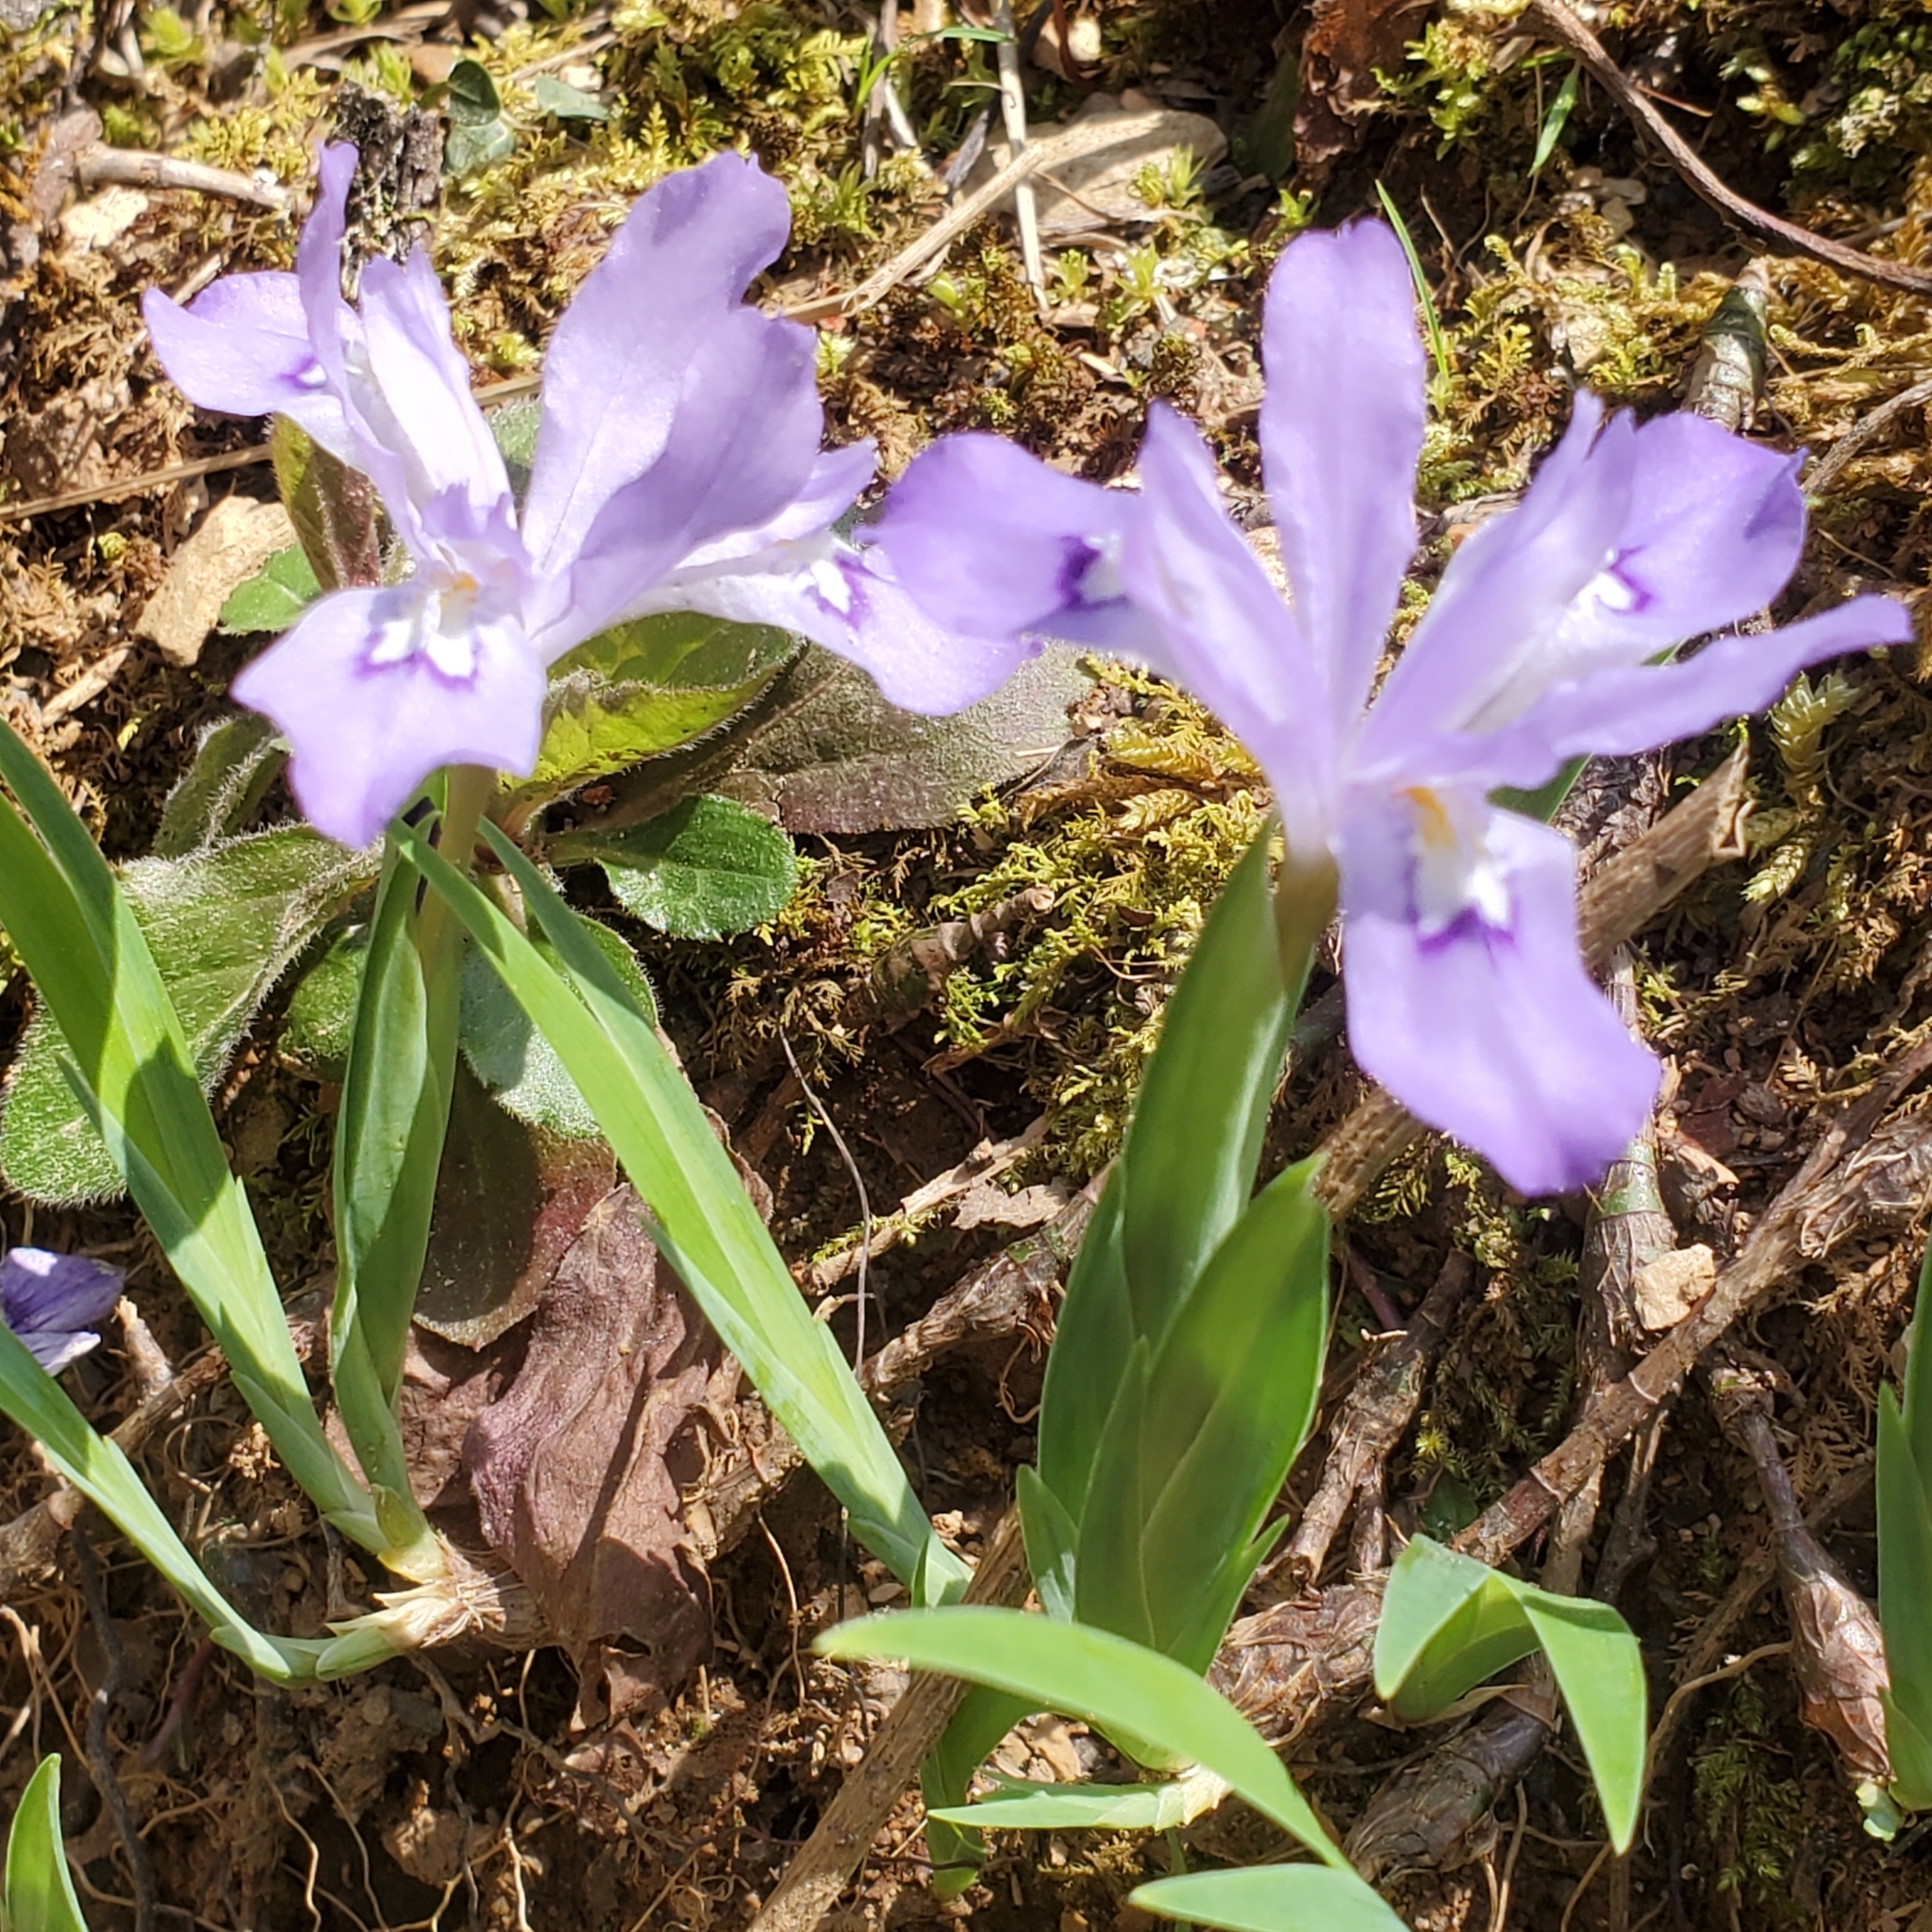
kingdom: Plantae
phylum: Tracheophyta
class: Liliopsida
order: Asparagales
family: Iridaceae
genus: Iris
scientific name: Iris cristata
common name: Crested iris
